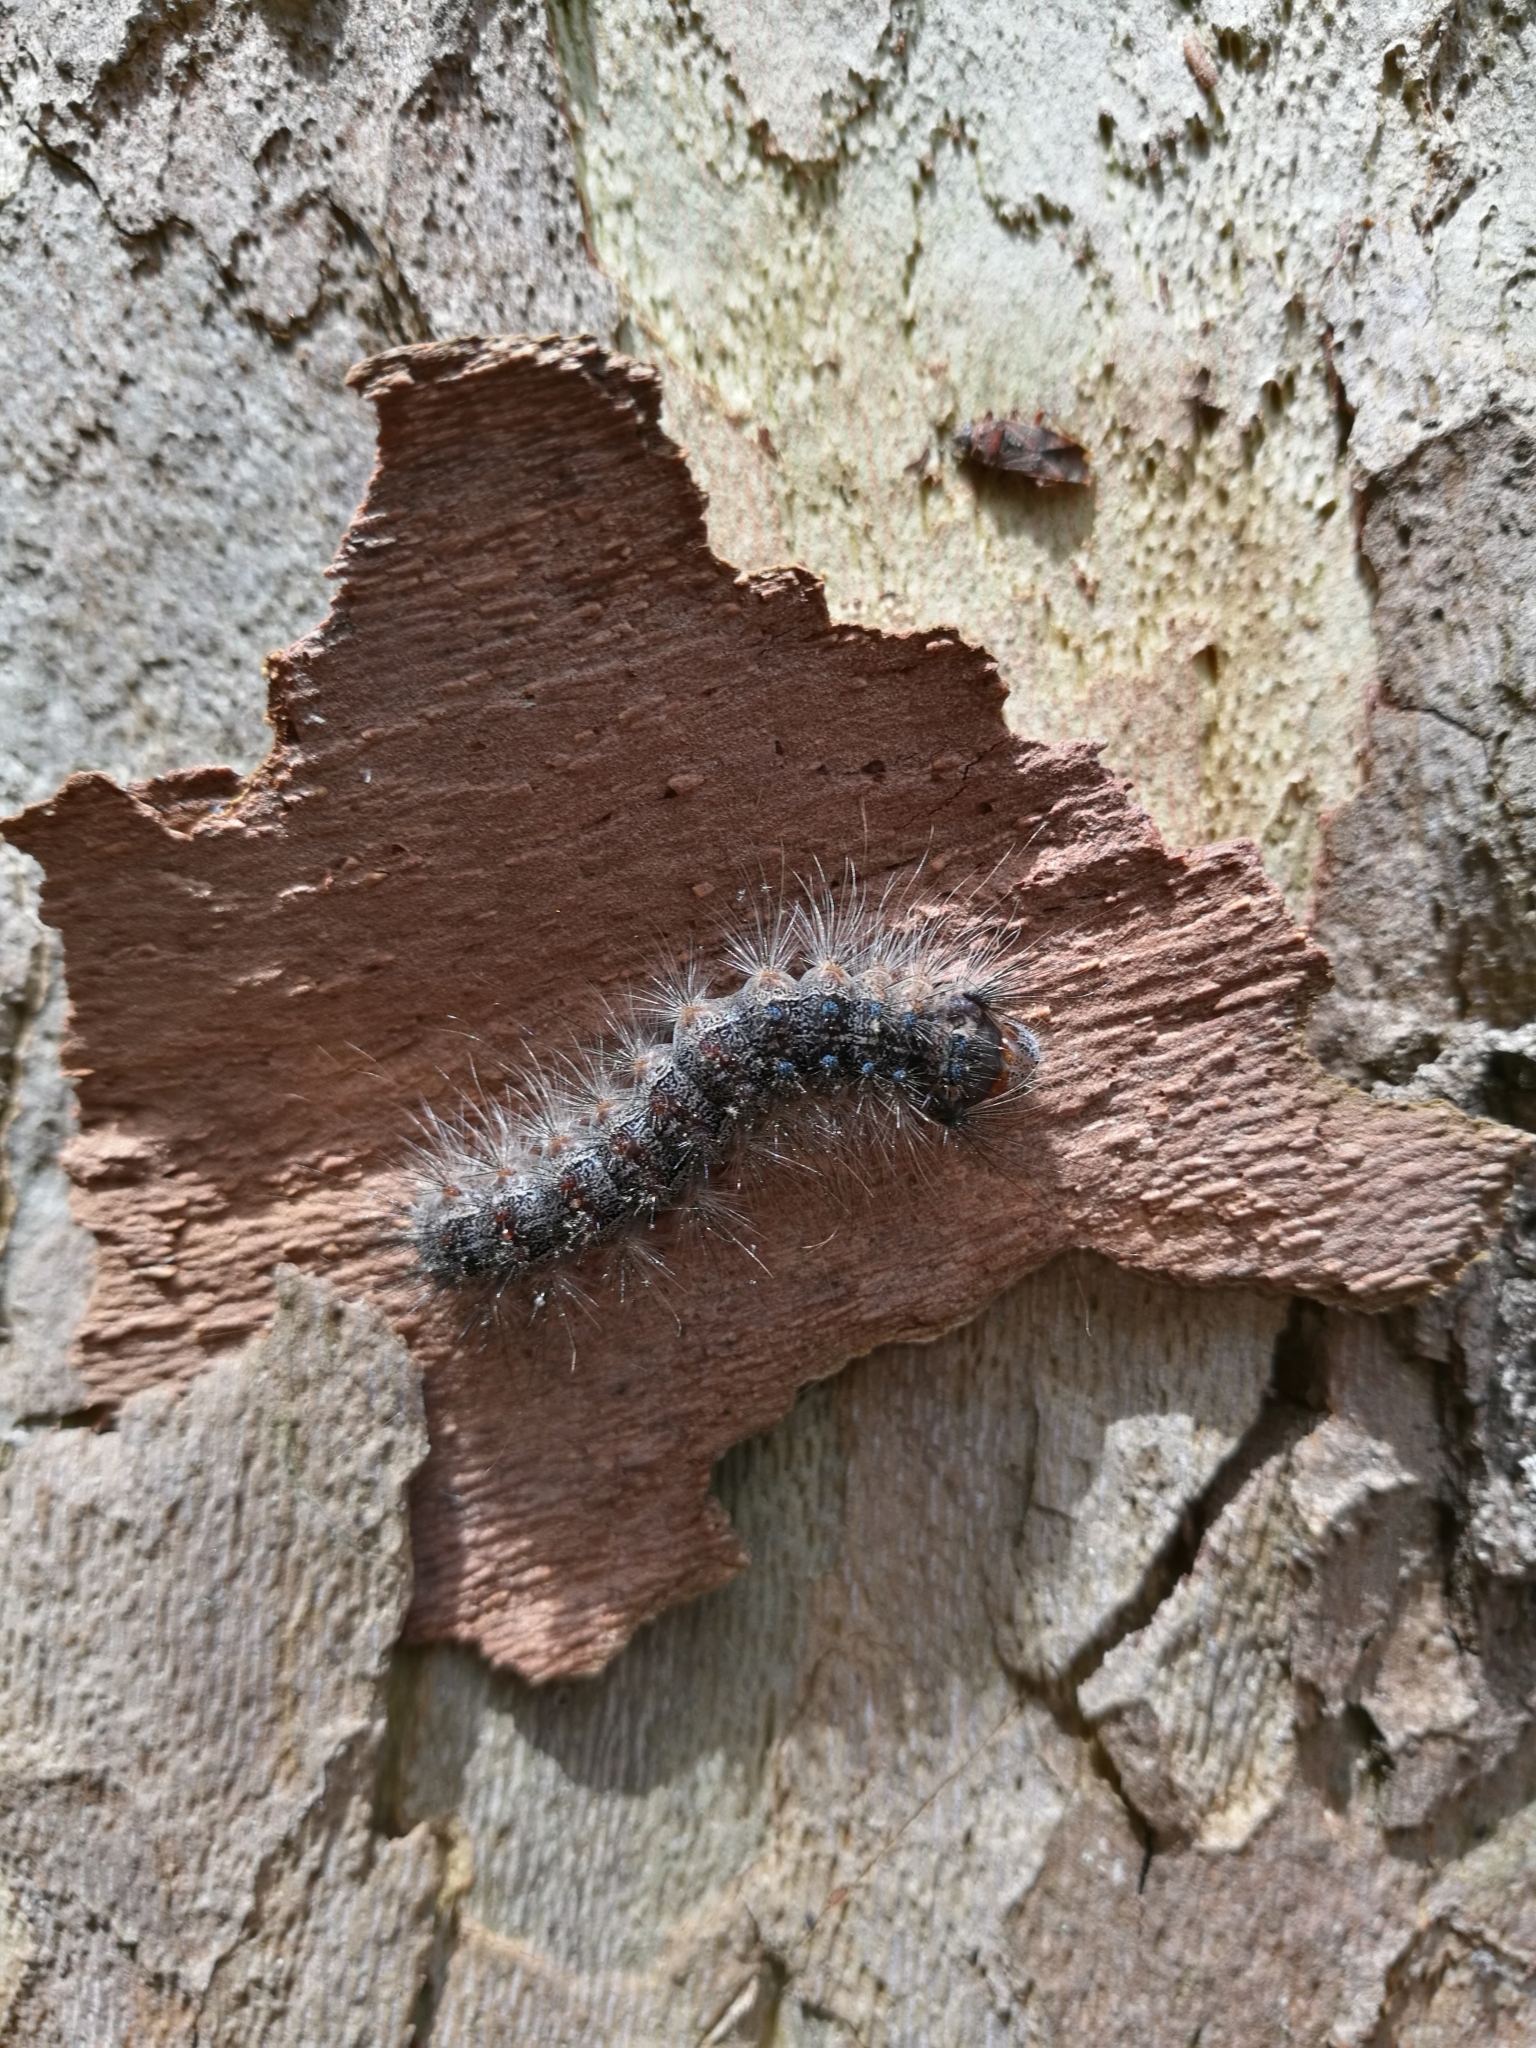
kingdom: Animalia
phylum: Arthropoda
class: Insecta
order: Lepidoptera
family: Erebidae
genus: Lymantria
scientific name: Lymantria dispar
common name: Gypsy moth
